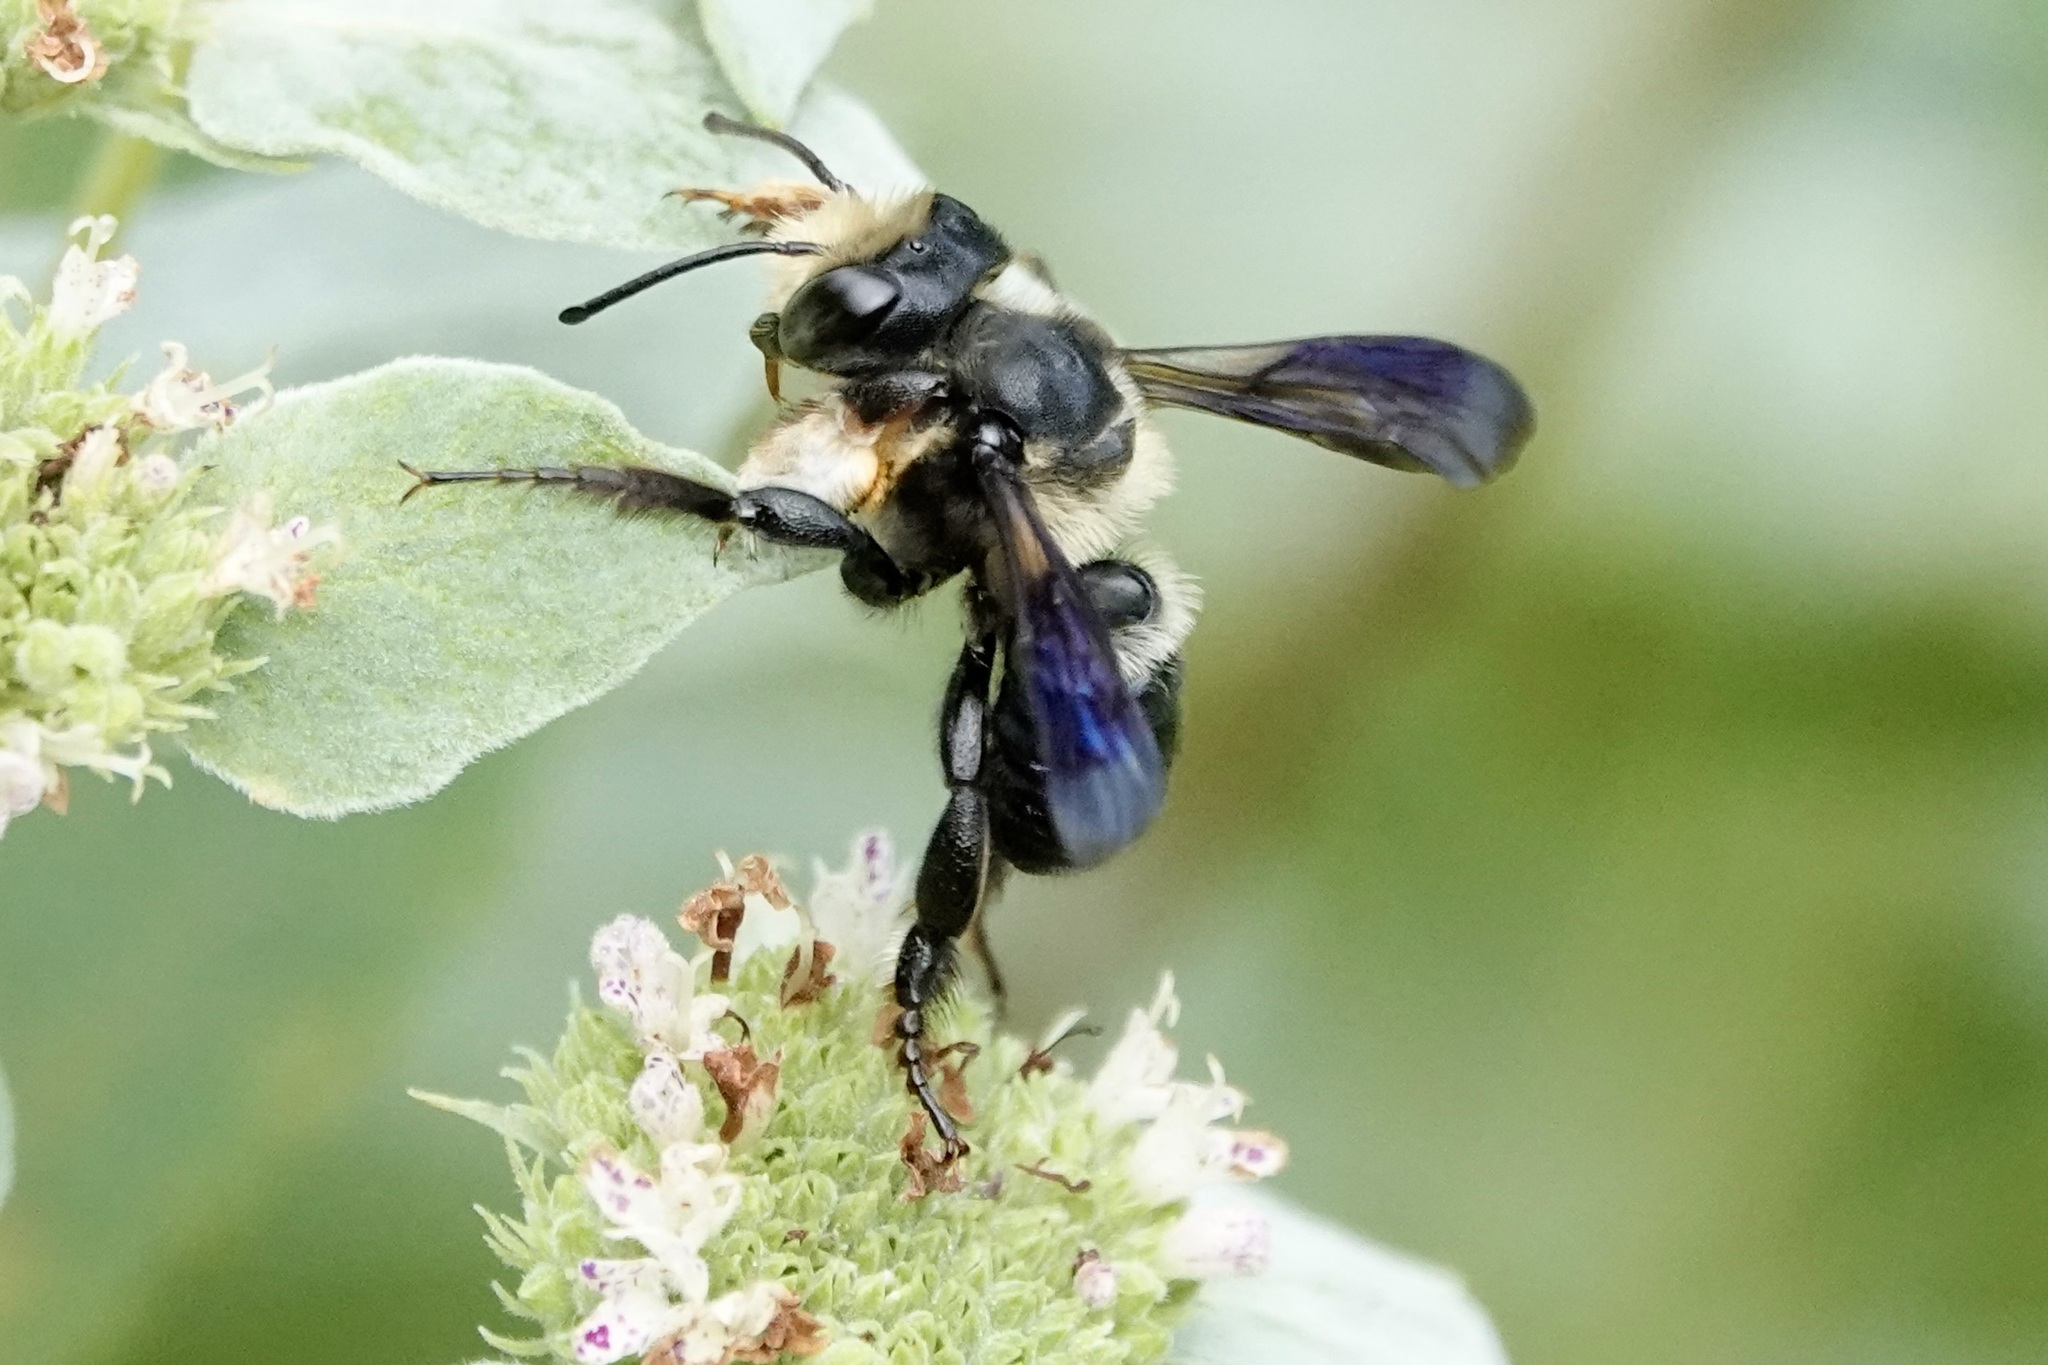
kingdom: Animalia
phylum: Arthropoda
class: Insecta
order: Hymenoptera
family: Megachilidae
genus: Megachile
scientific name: Megachile xylocopoides
